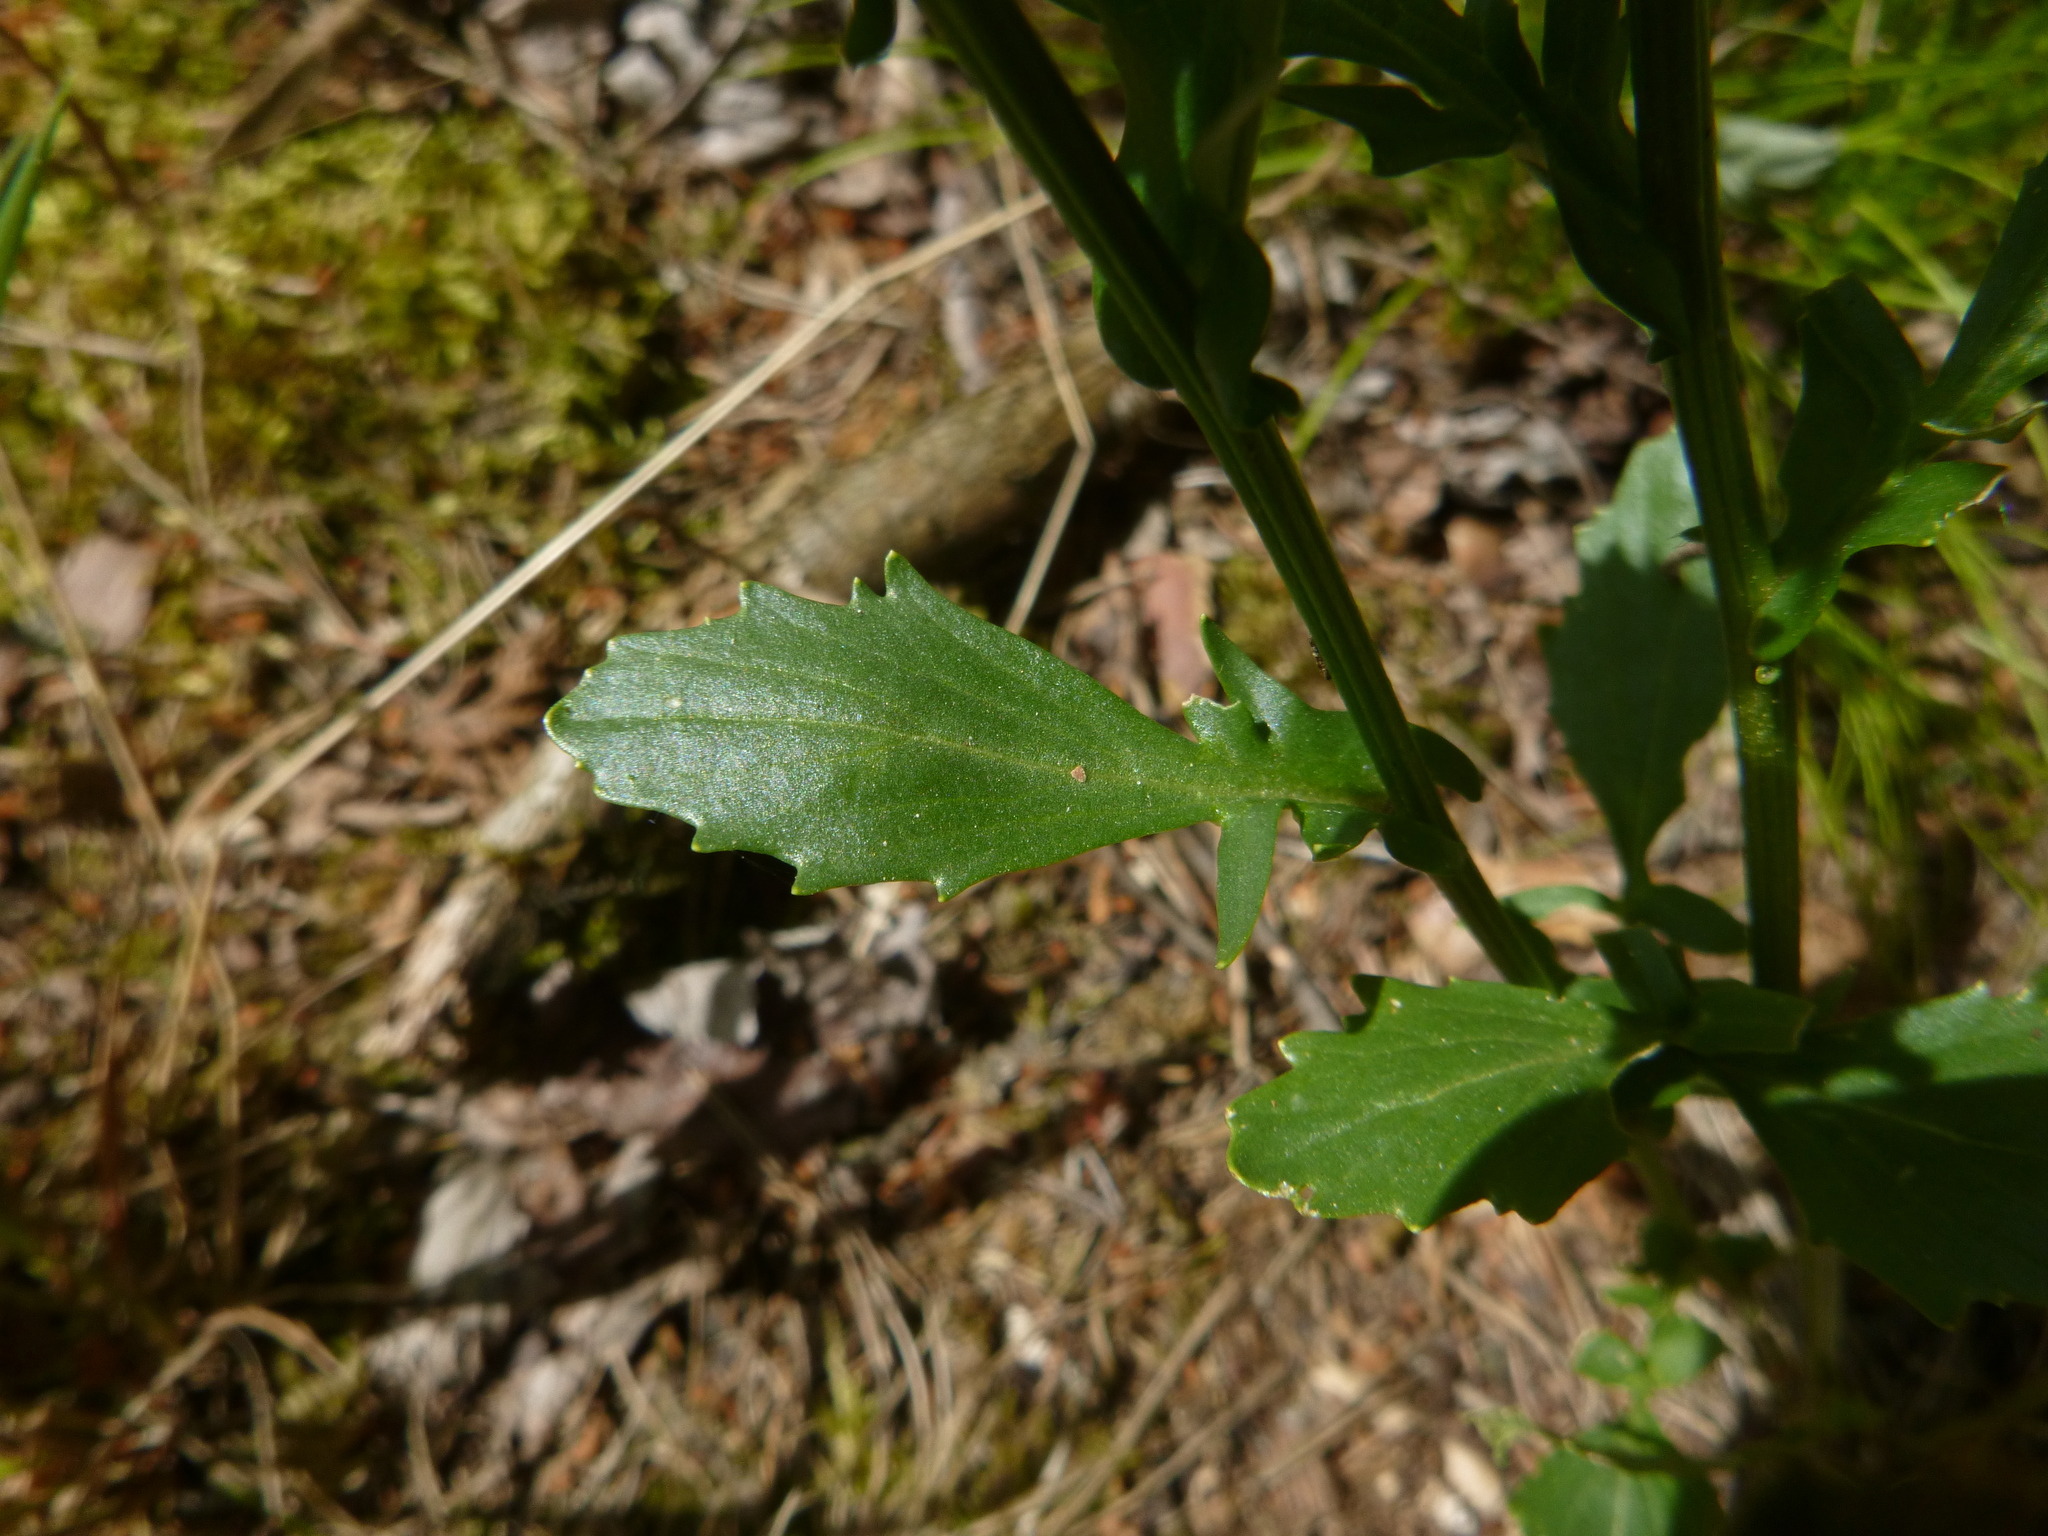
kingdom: Plantae
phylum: Tracheophyta
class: Magnoliopsida
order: Brassicales
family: Brassicaceae
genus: Barbarea
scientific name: Barbarea vulgaris
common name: Cressy-greens
